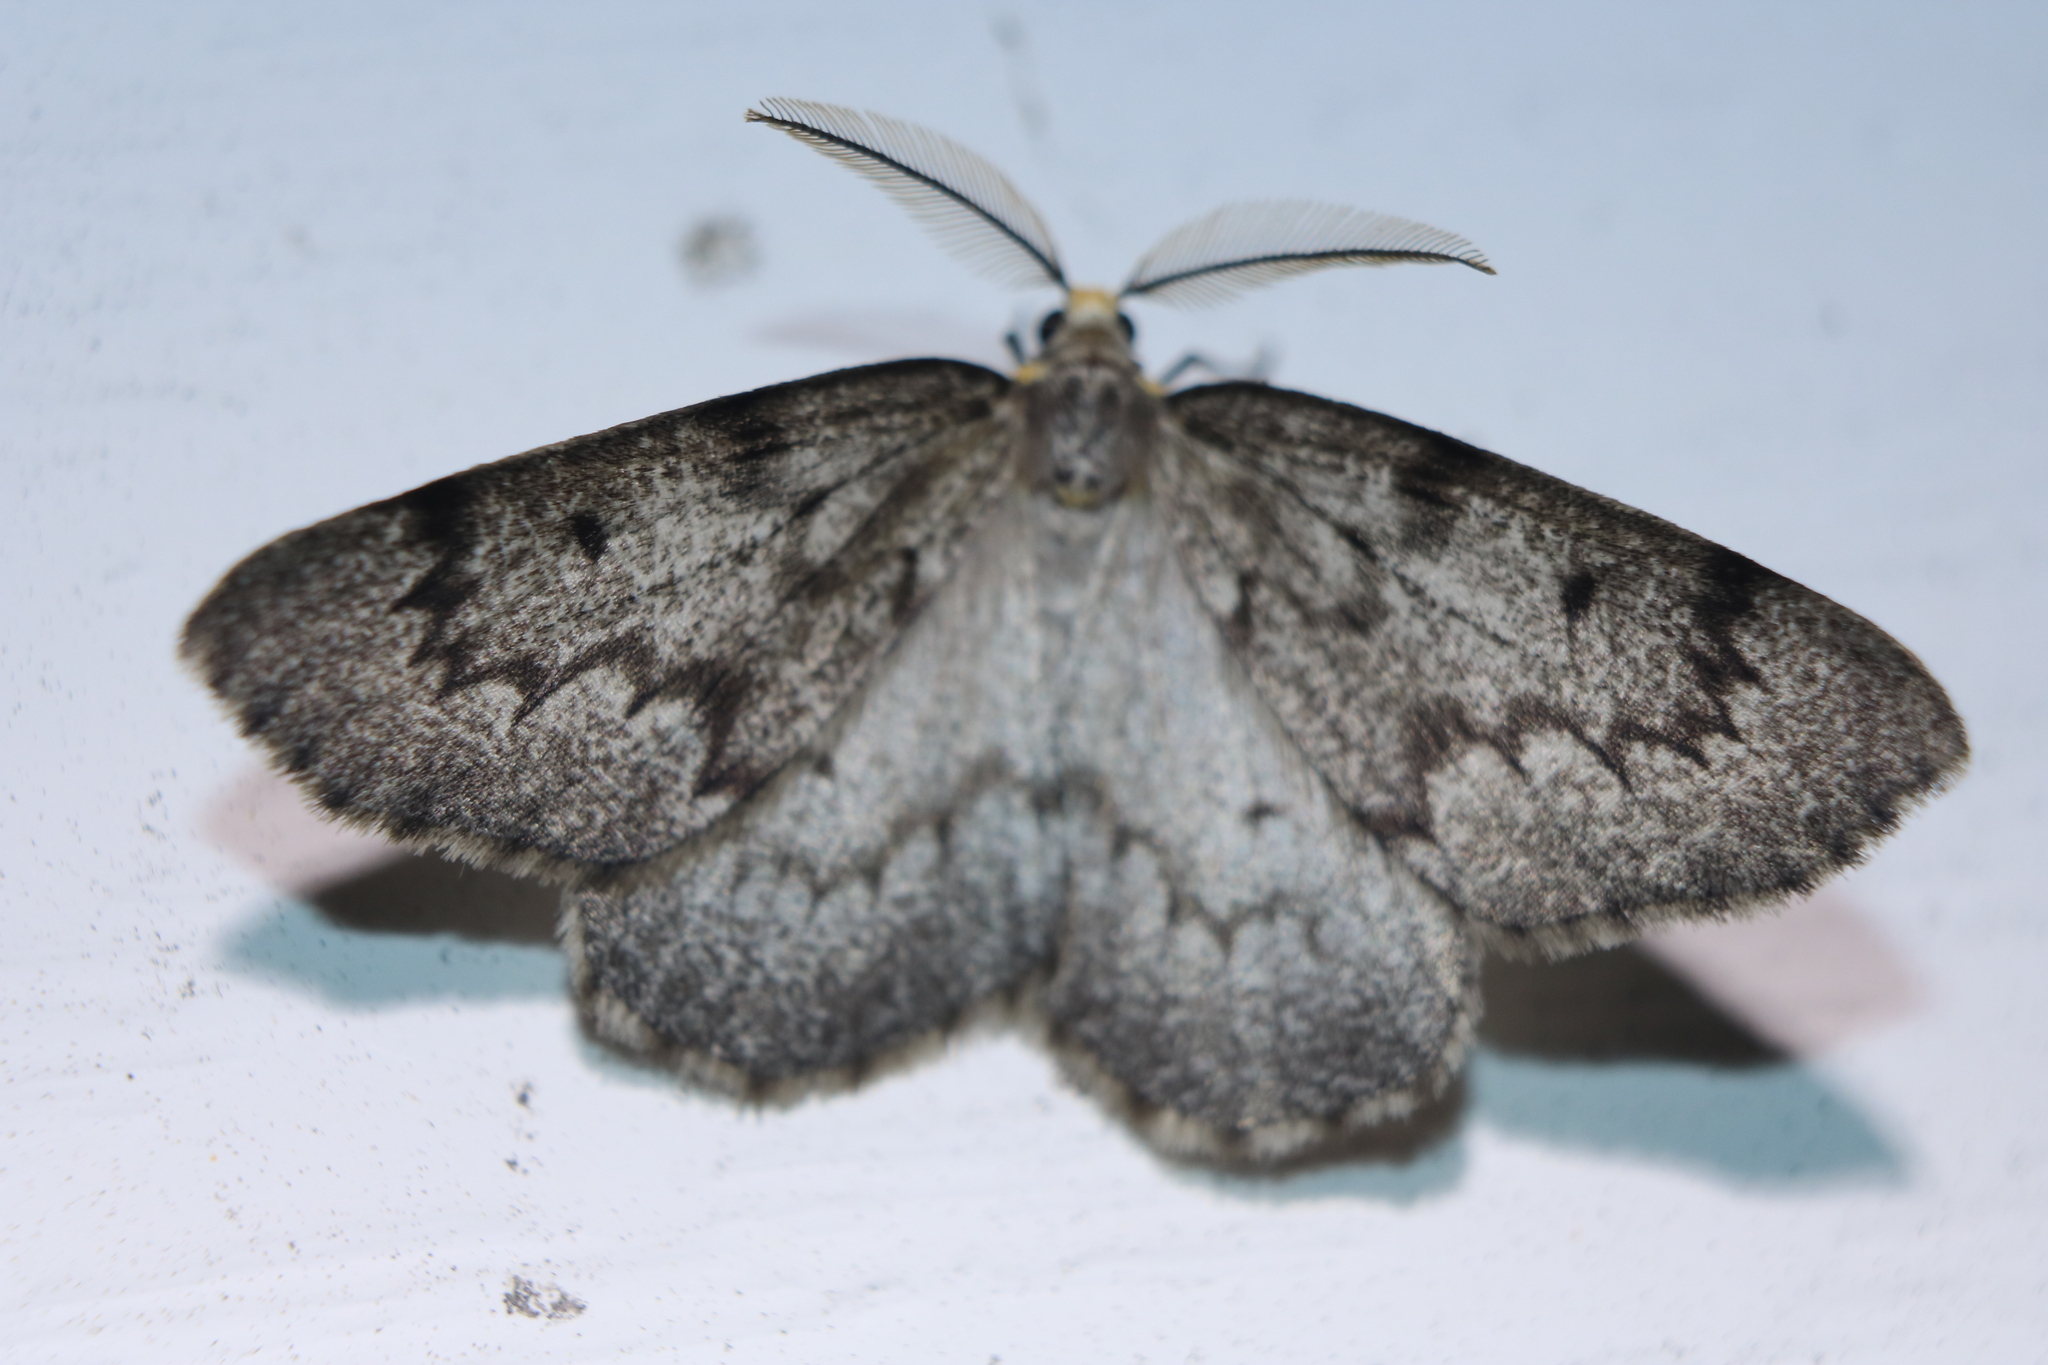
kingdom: Animalia
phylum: Arthropoda
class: Insecta
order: Lepidoptera
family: Geometridae
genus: Nepytia
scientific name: Nepytia canosaria
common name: False hemlock looper
